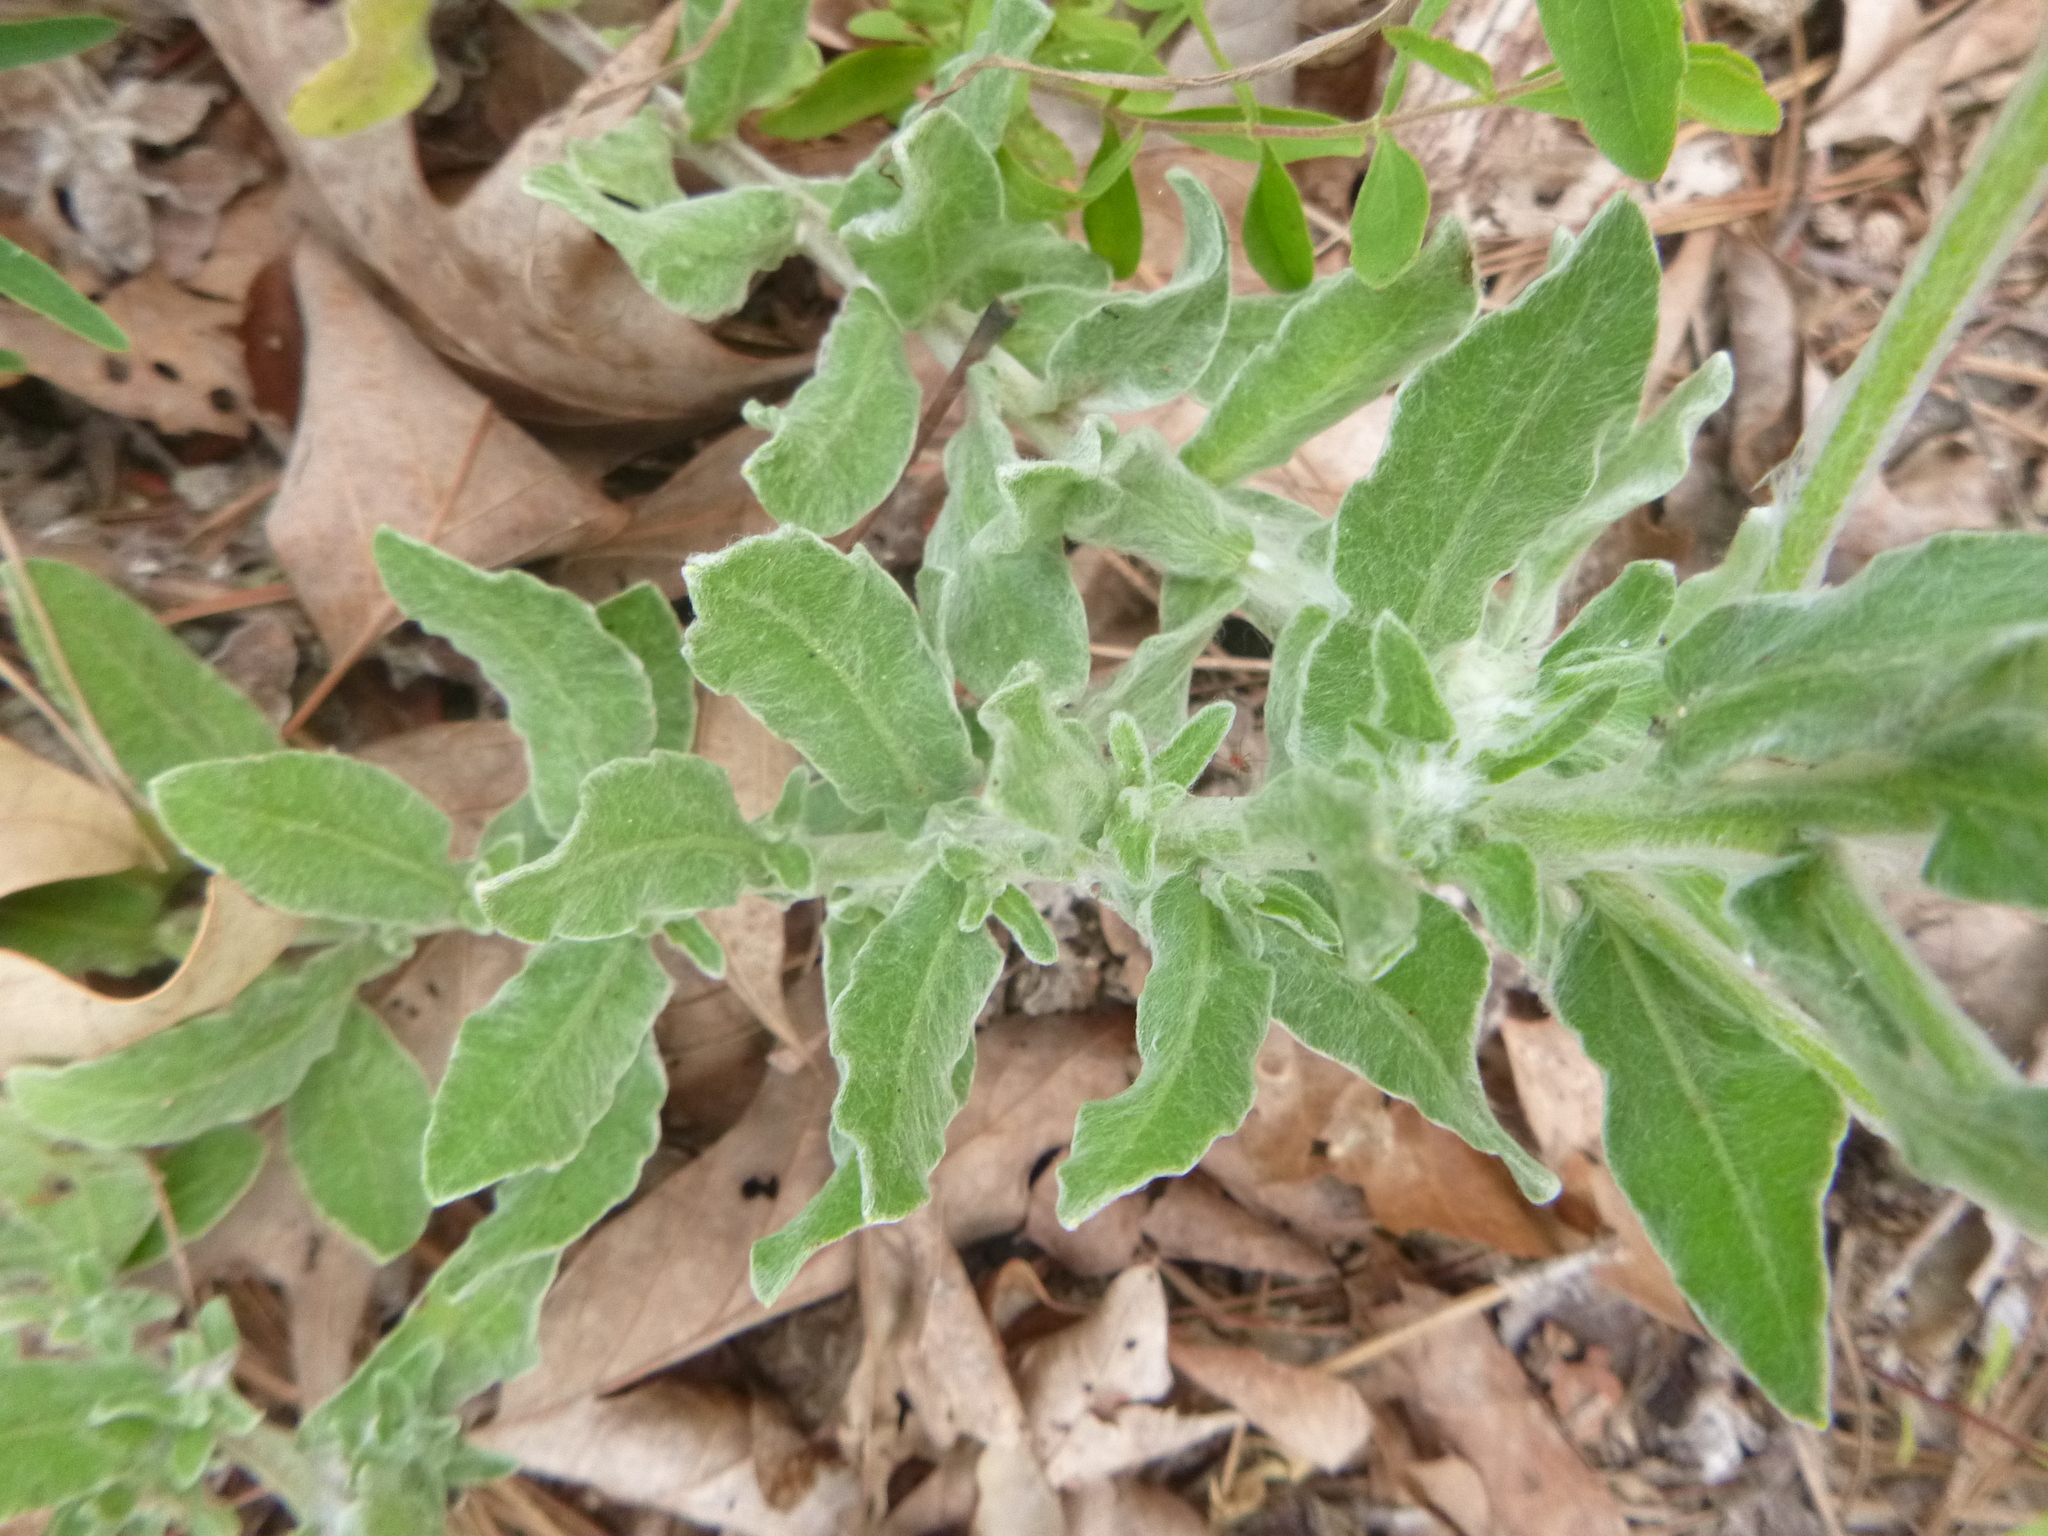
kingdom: Plantae
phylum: Tracheophyta
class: Magnoliopsida
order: Asterales
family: Asteraceae
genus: Chrysopsis
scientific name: Chrysopsis gossypina
